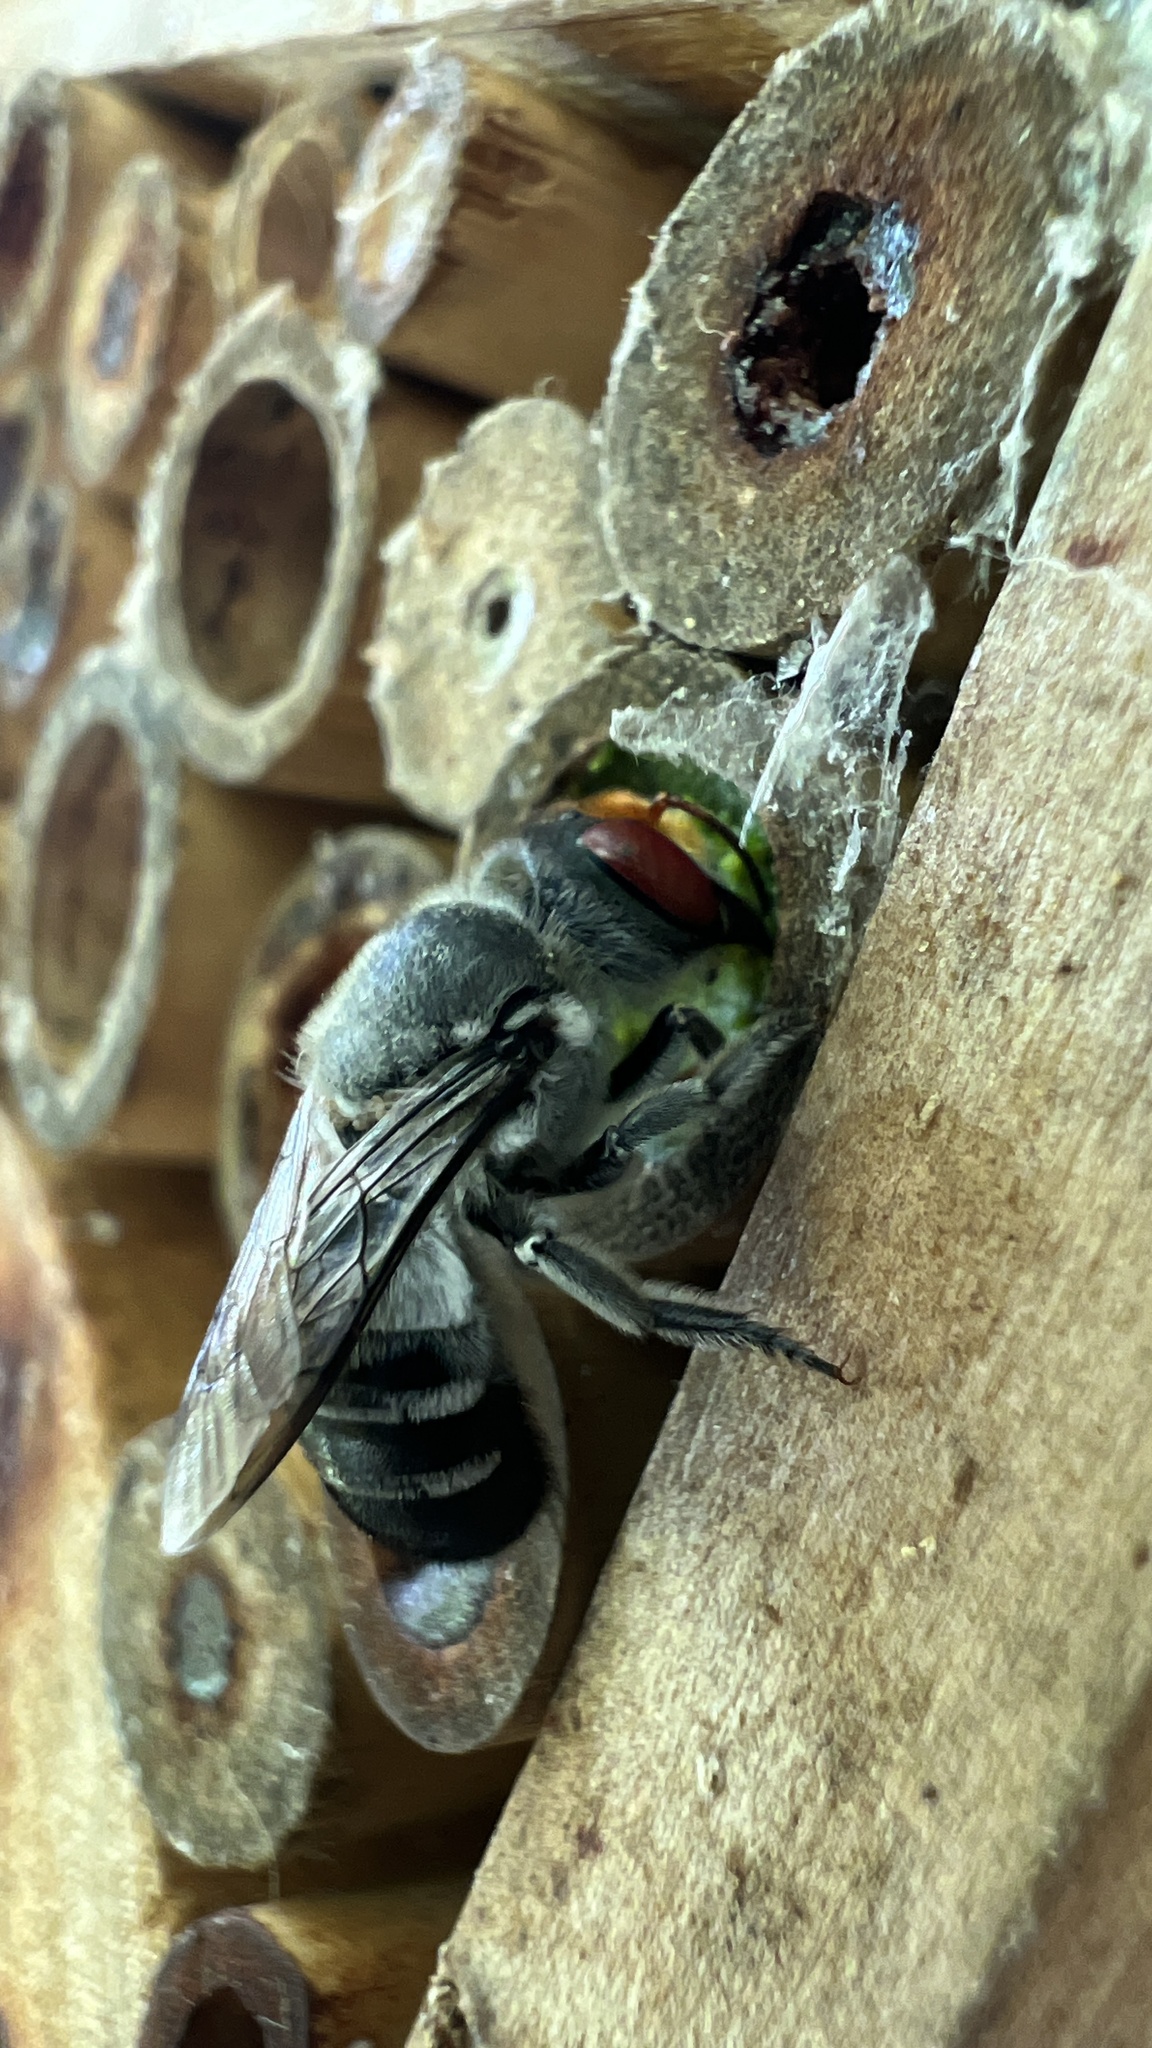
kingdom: Animalia
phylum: Arthropoda
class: Insecta
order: Hymenoptera
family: Megachilidae
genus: Megachile
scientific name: Megachile aurifrons
